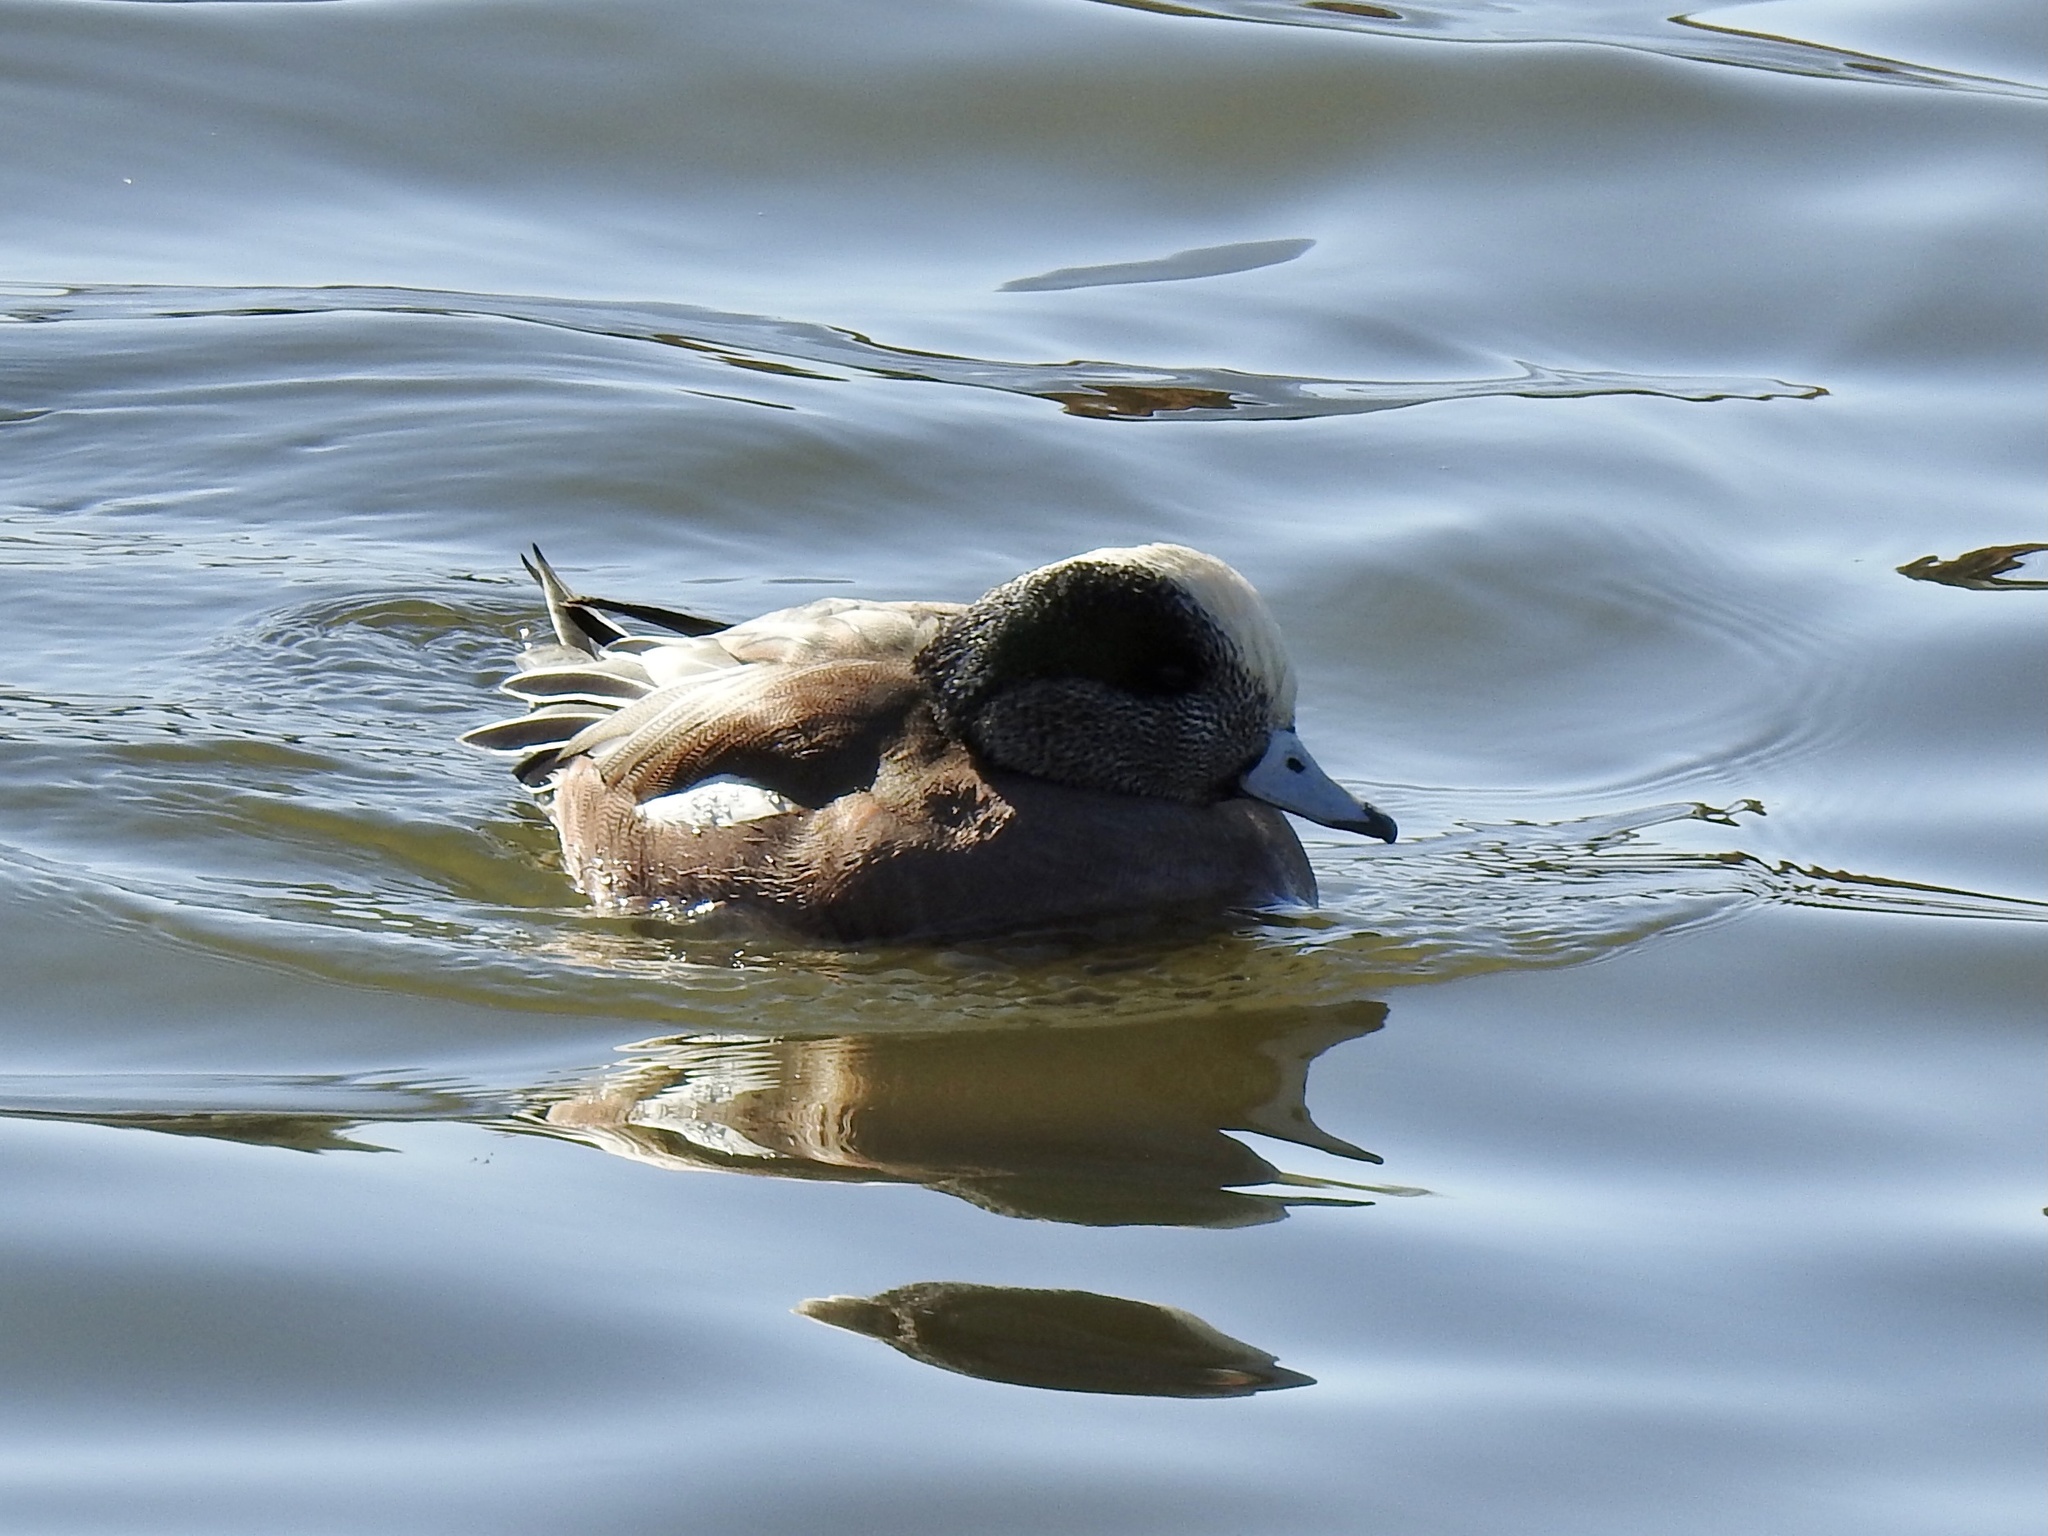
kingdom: Animalia
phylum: Chordata
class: Aves
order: Anseriformes
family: Anatidae
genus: Mareca
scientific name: Mareca americana
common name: American wigeon
